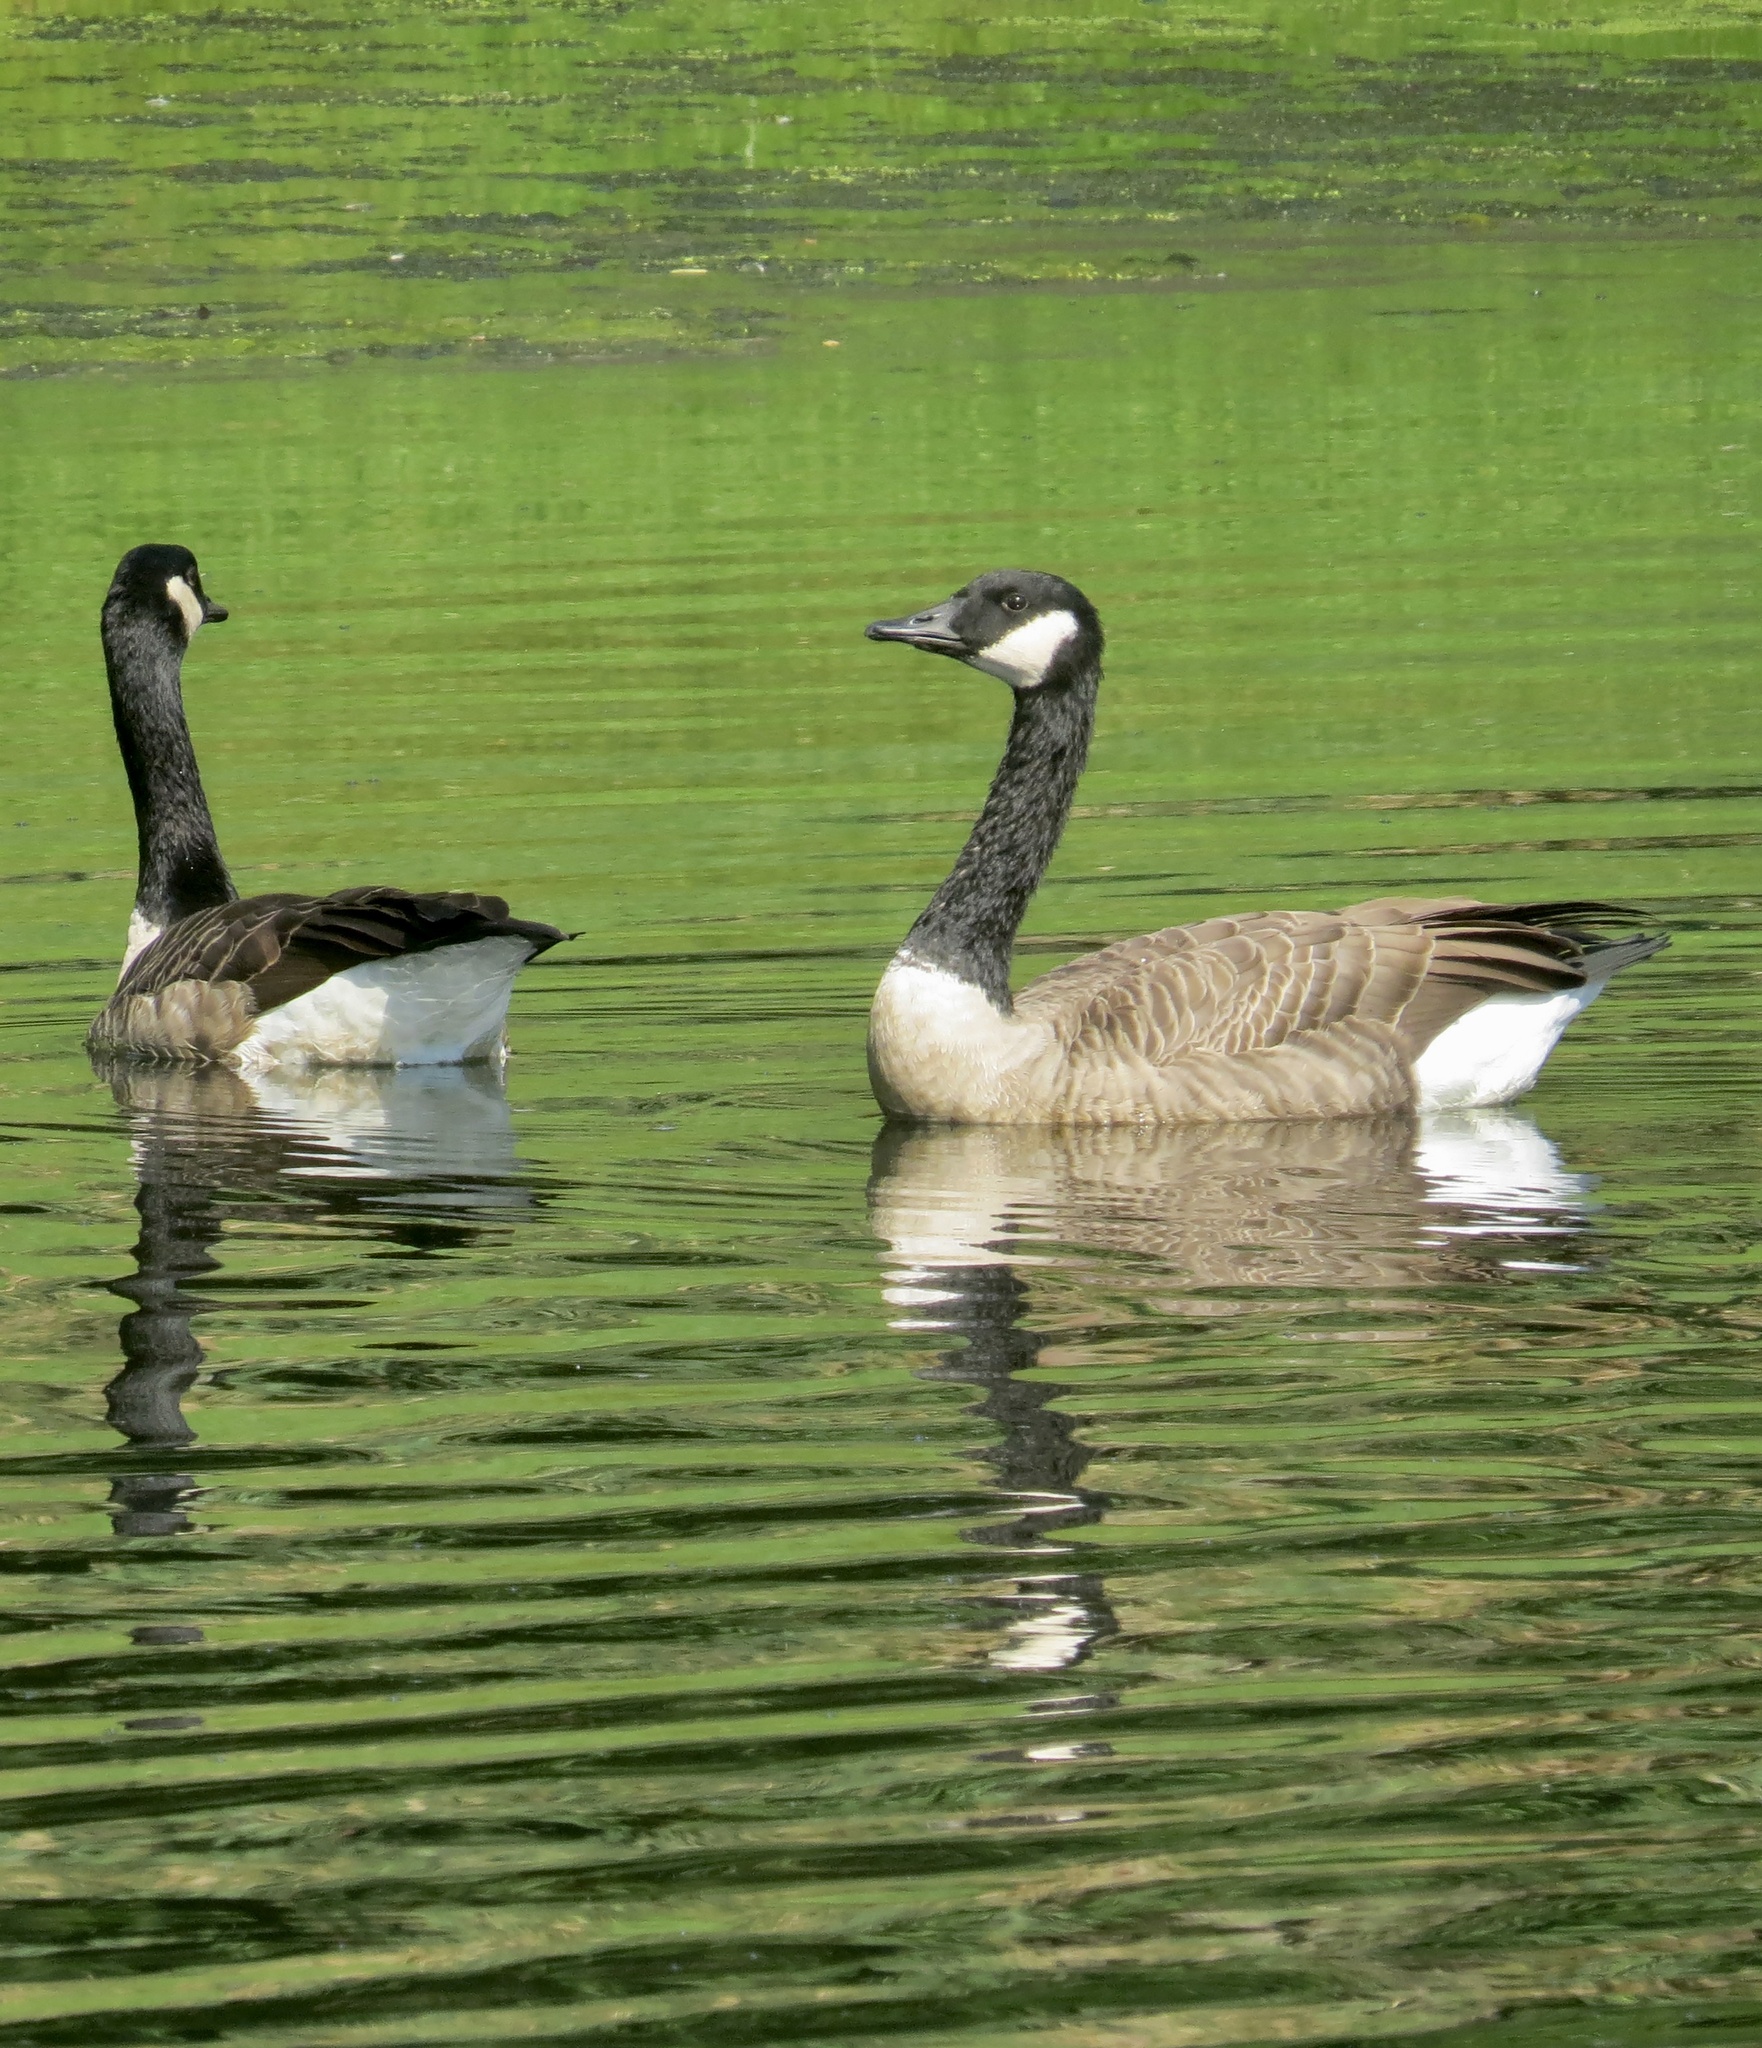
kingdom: Animalia
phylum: Chordata
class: Aves
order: Anseriformes
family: Anatidae
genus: Branta
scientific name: Branta canadensis
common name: Canada goose
